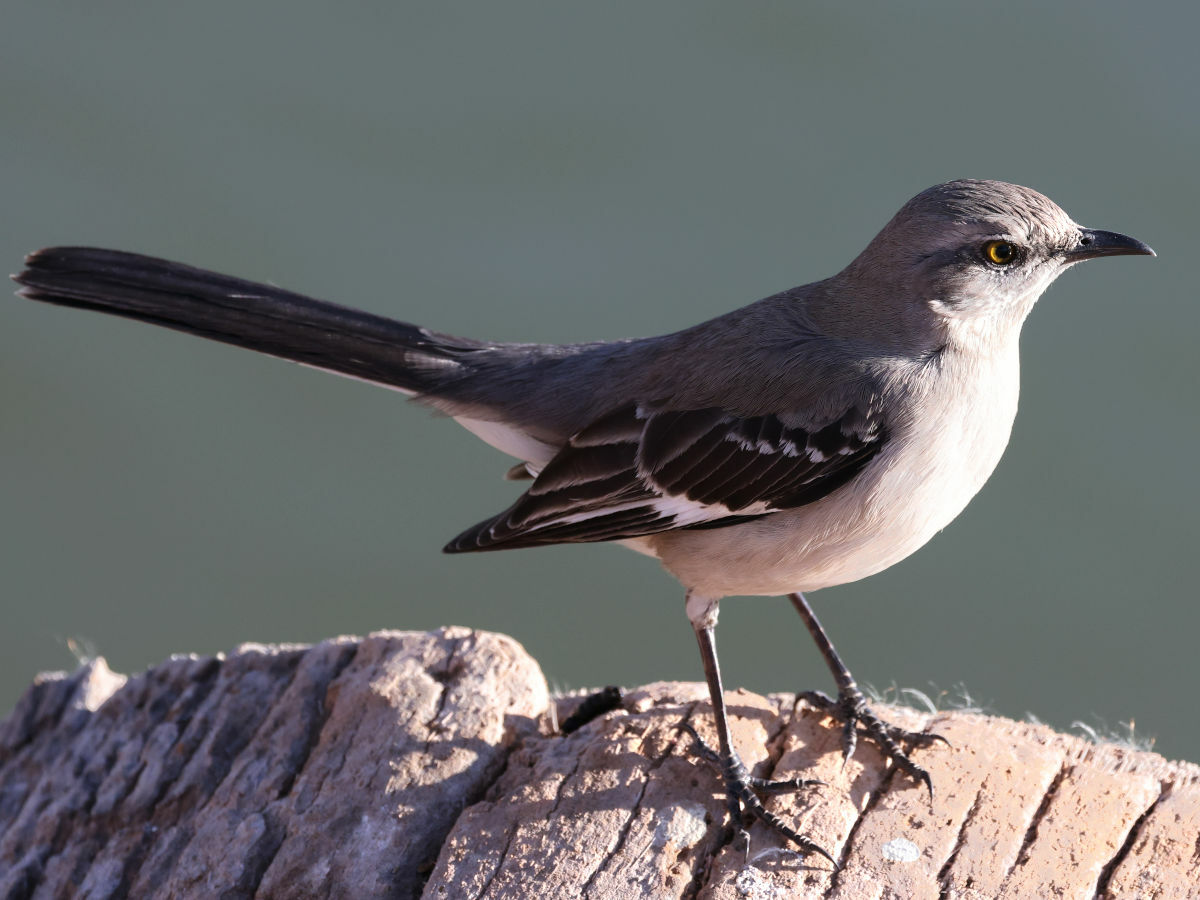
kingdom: Animalia
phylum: Chordata
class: Aves
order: Passeriformes
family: Mimidae
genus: Mimus
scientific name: Mimus polyglottos
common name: Northern mockingbird
